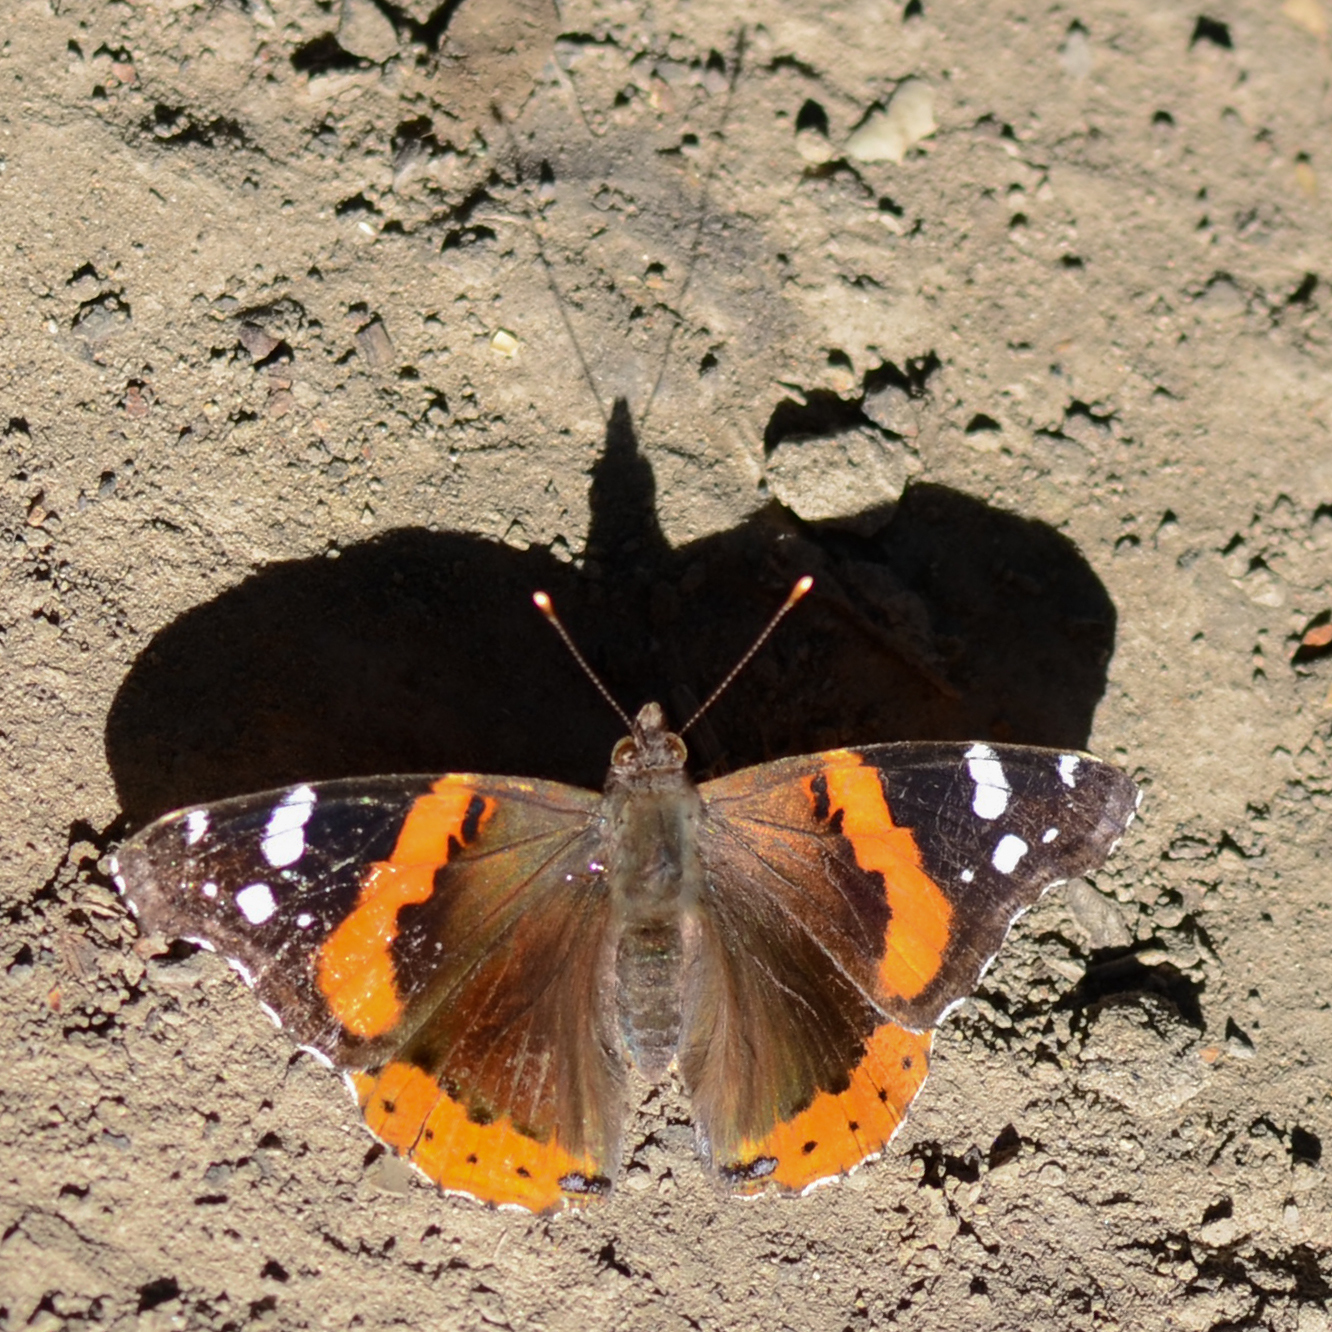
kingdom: Animalia
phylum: Arthropoda
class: Insecta
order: Lepidoptera
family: Nymphalidae
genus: Vanessa
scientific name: Vanessa atalanta
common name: Red admiral
